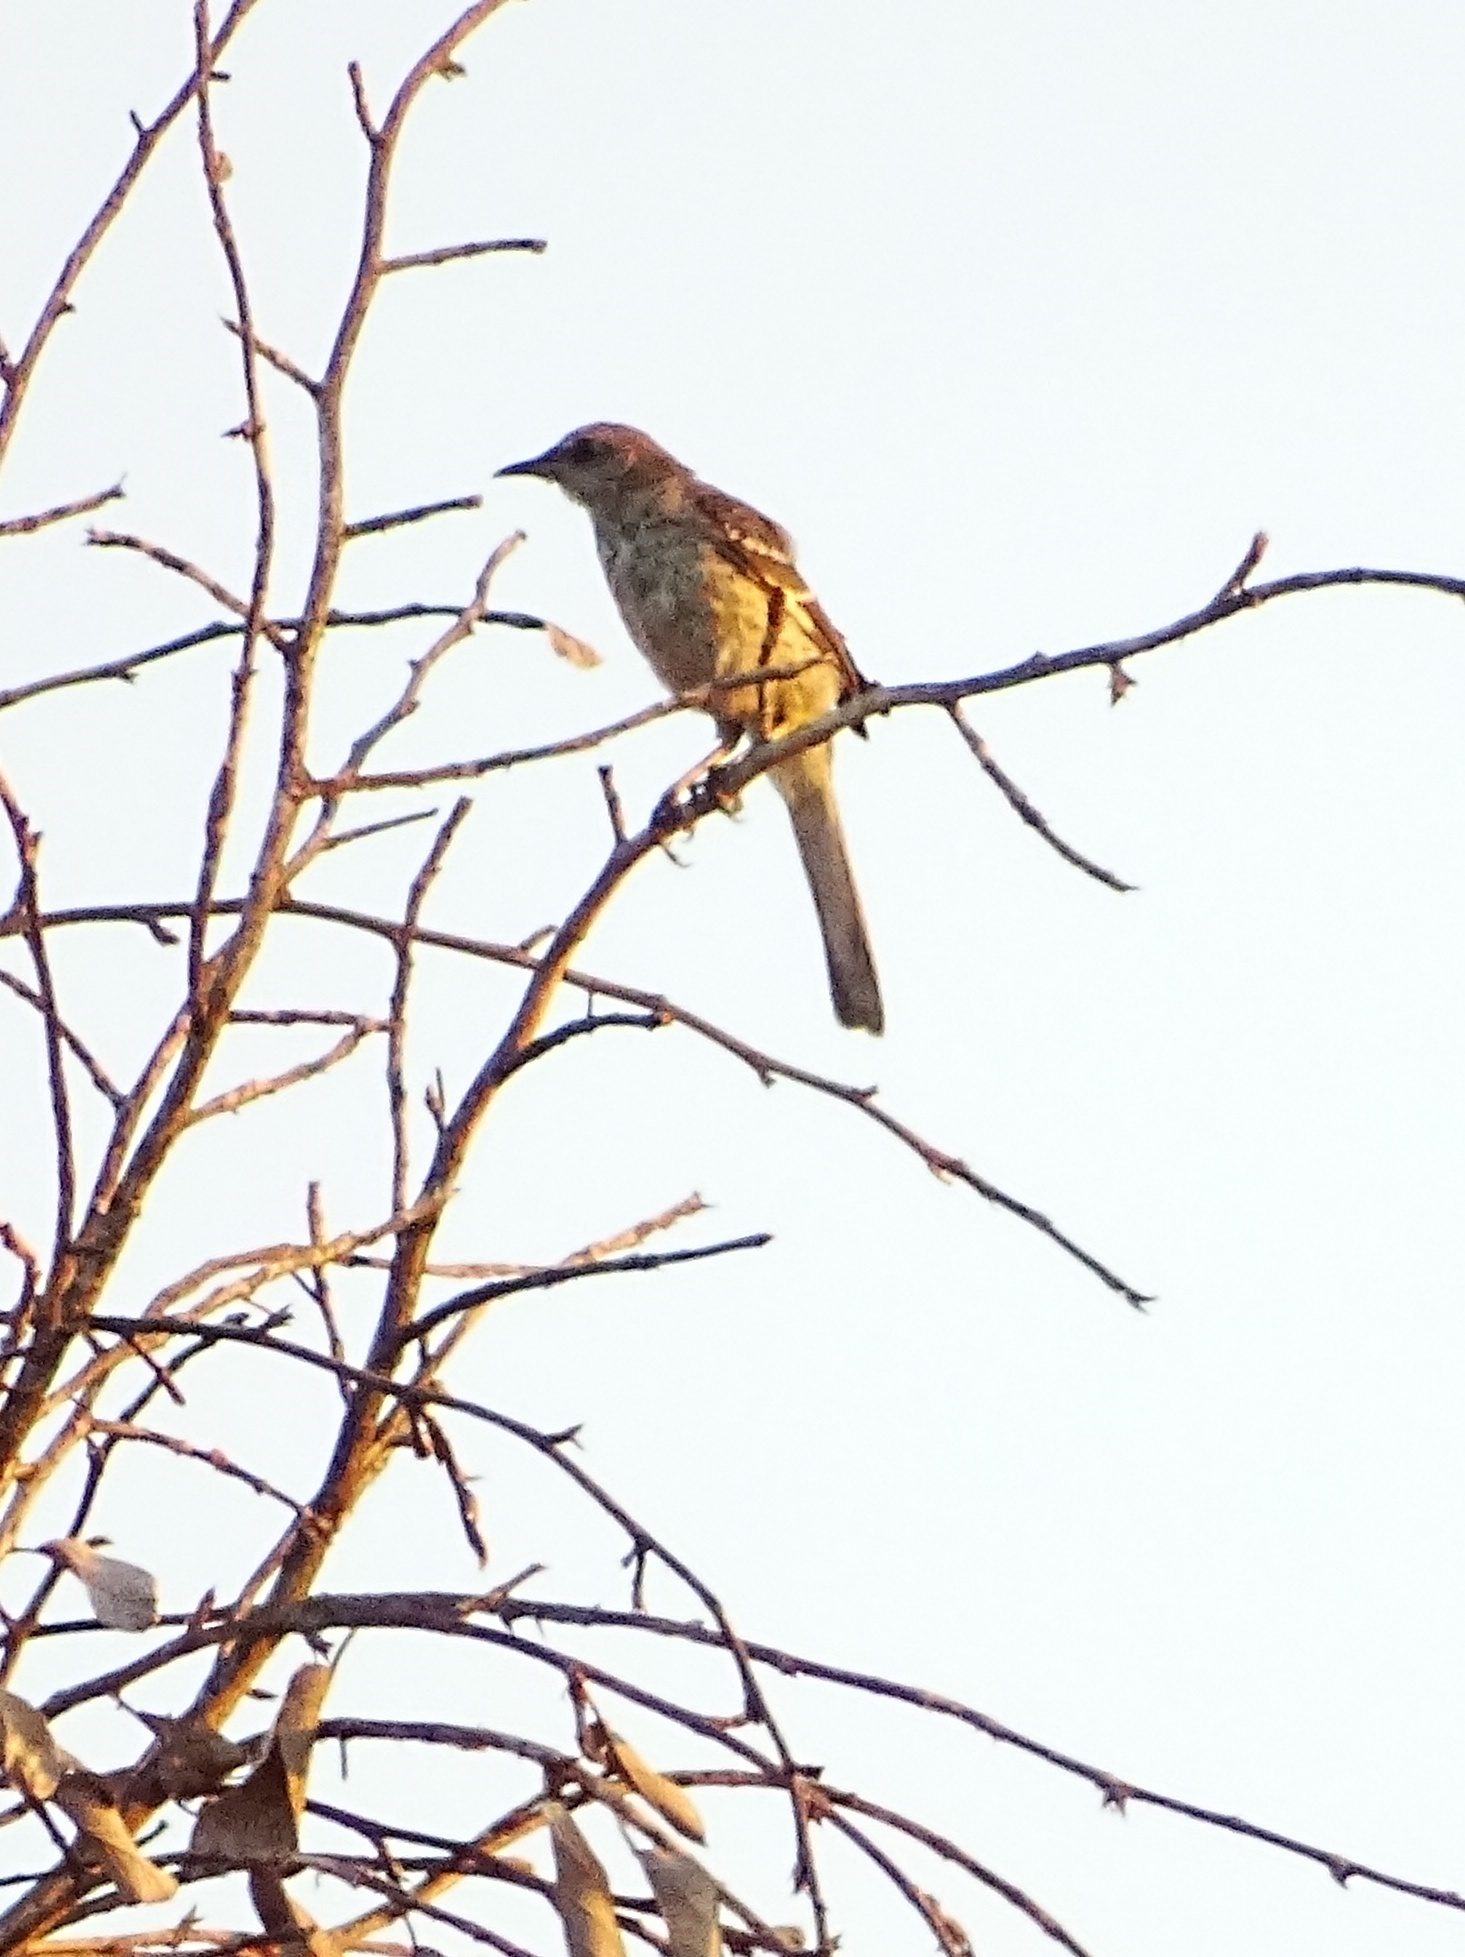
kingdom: Animalia
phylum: Chordata
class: Aves
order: Passeriformes
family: Mimidae
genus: Mimus
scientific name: Mimus polyglottos
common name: Northern mockingbird
